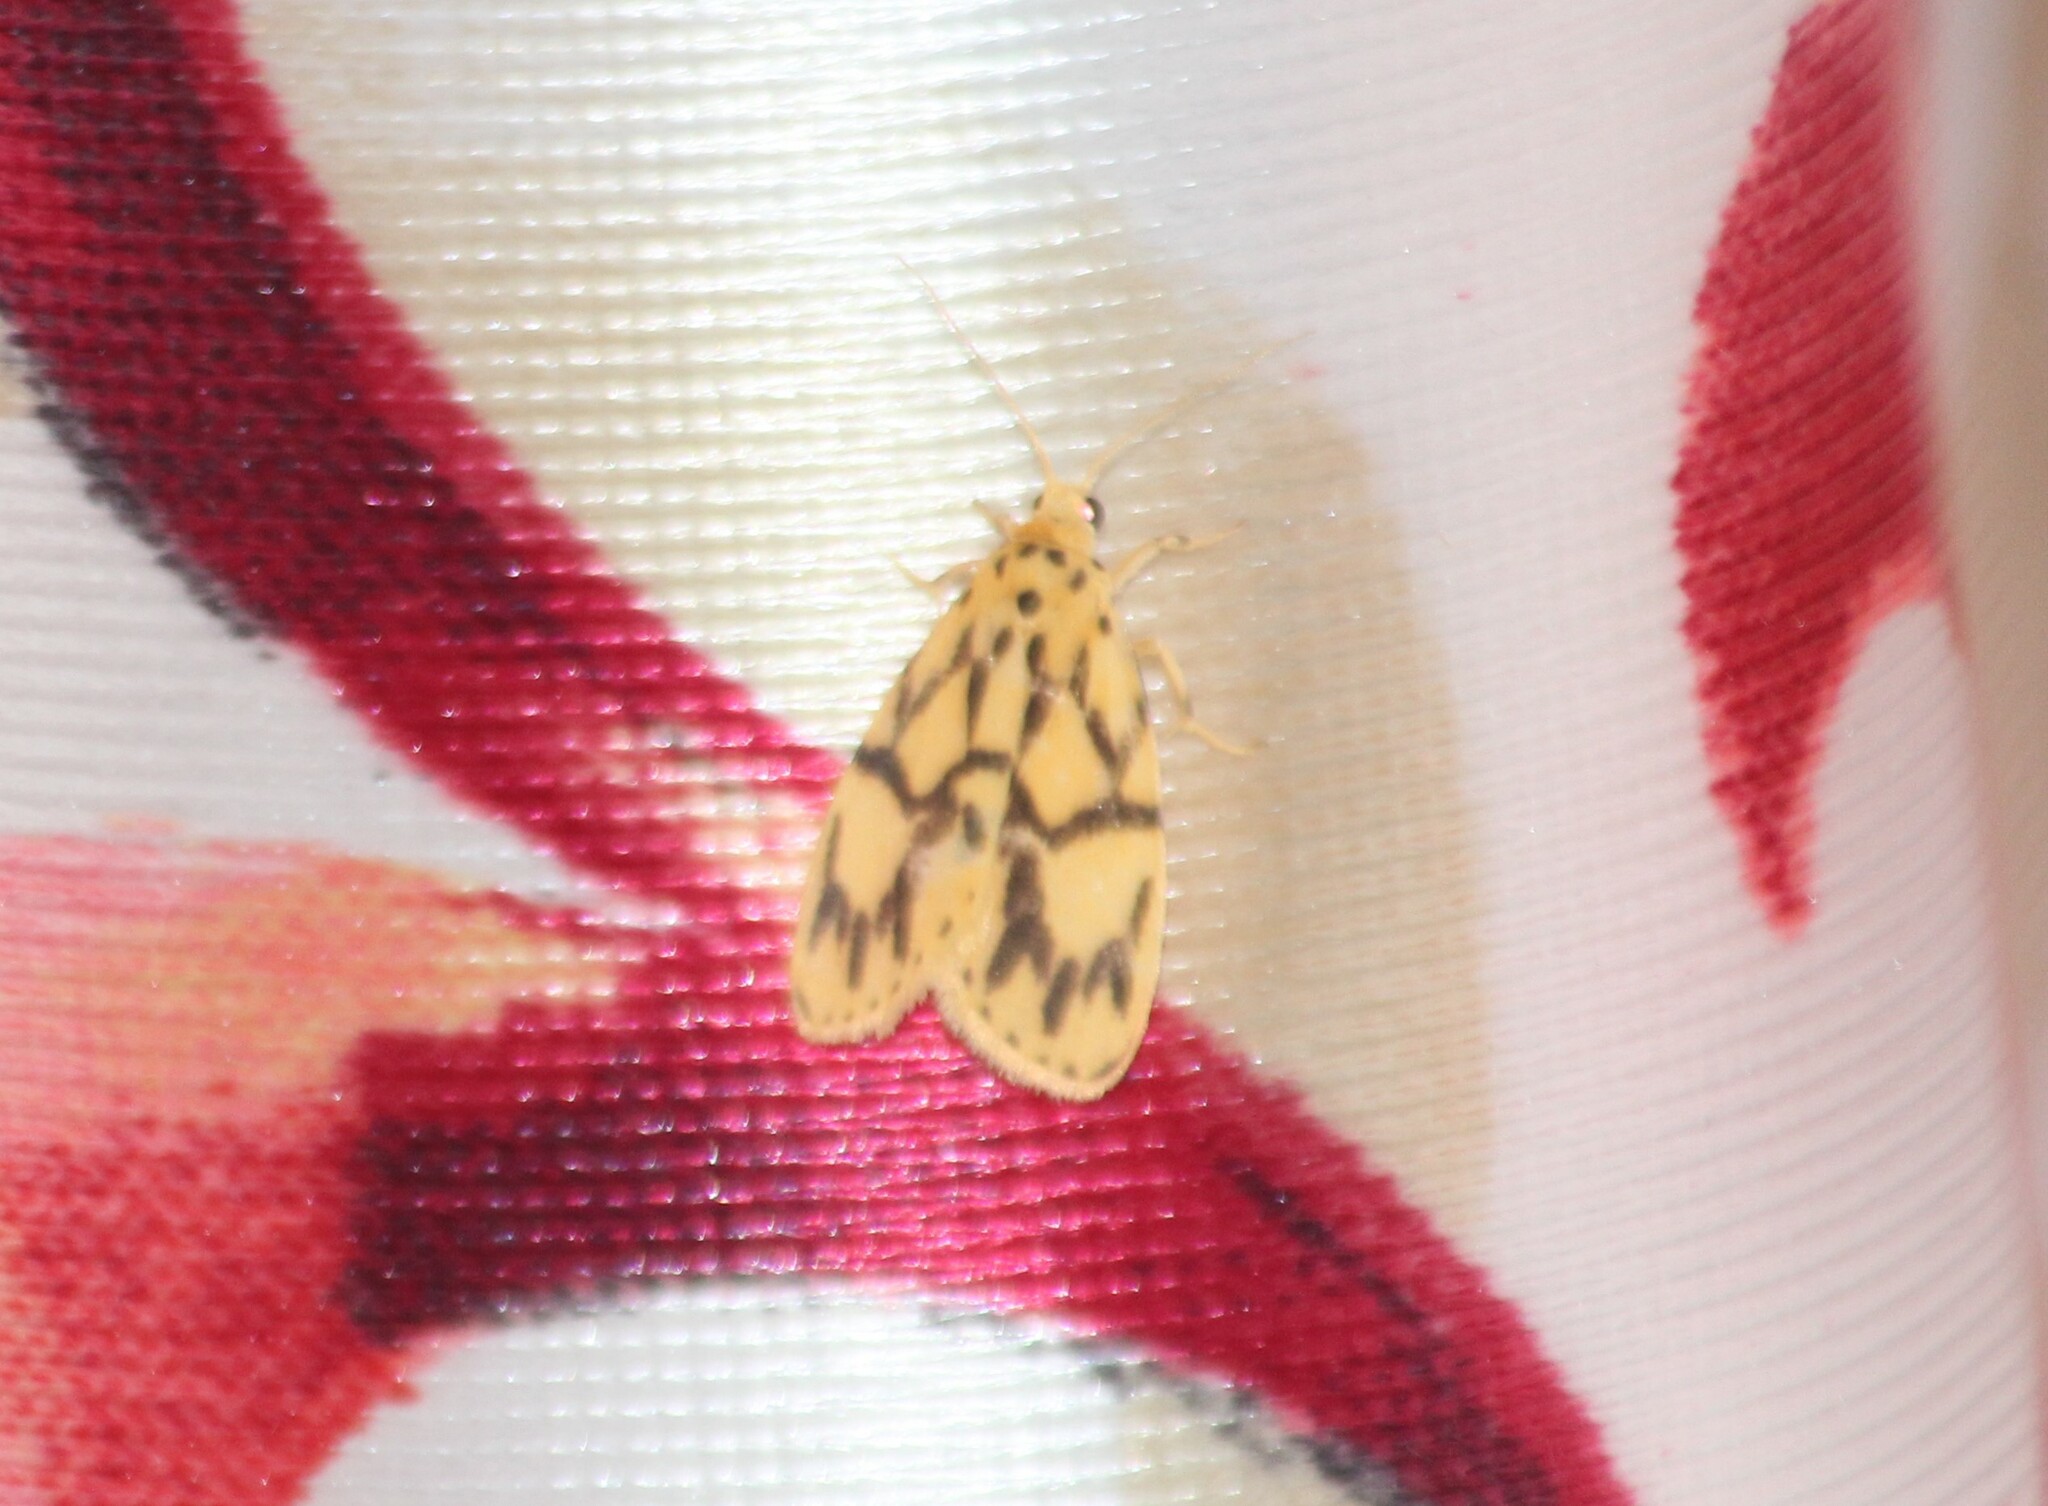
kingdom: Animalia
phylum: Arthropoda
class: Insecta
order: Lepidoptera
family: Erebidae
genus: Miltochrista
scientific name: Miltochrista terminospota
